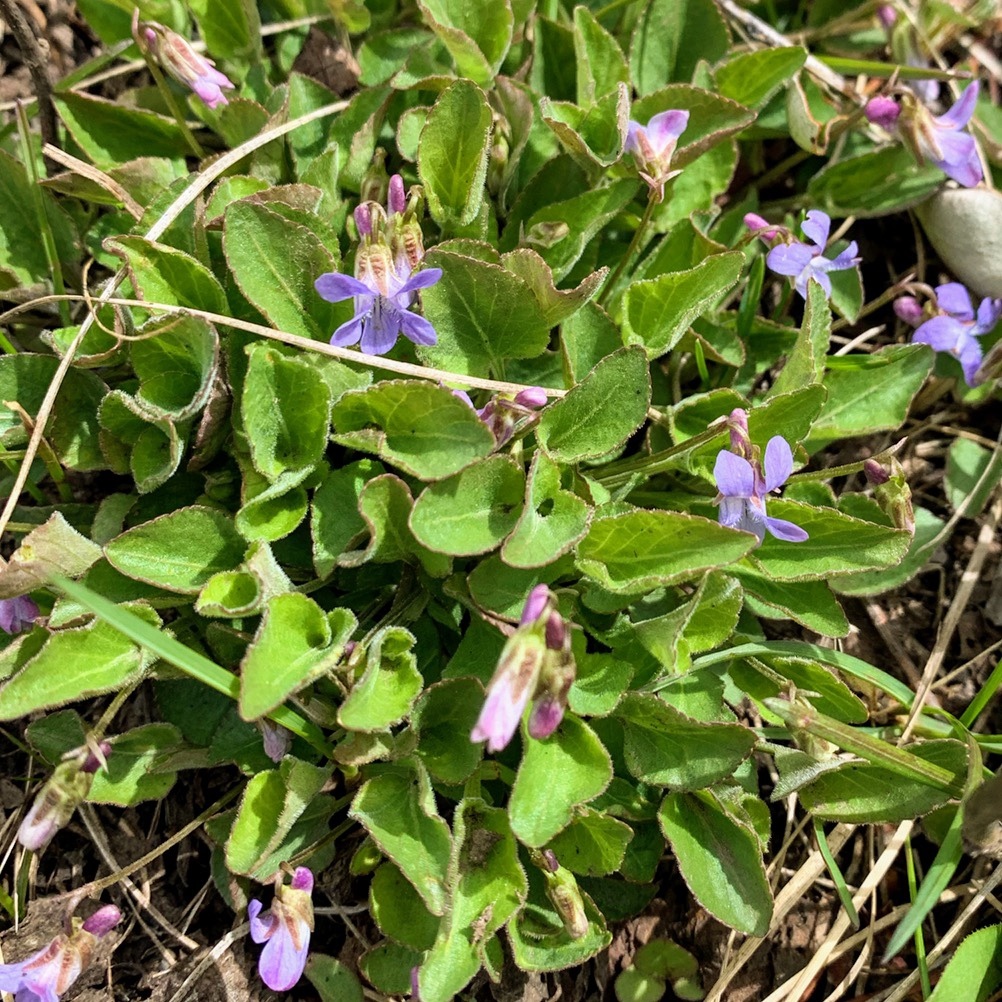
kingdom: Plantae
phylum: Tracheophyta
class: Magnoliopsida
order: Malpighiales
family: Violaceae
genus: Viola
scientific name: Viola adunca
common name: Sand violet
